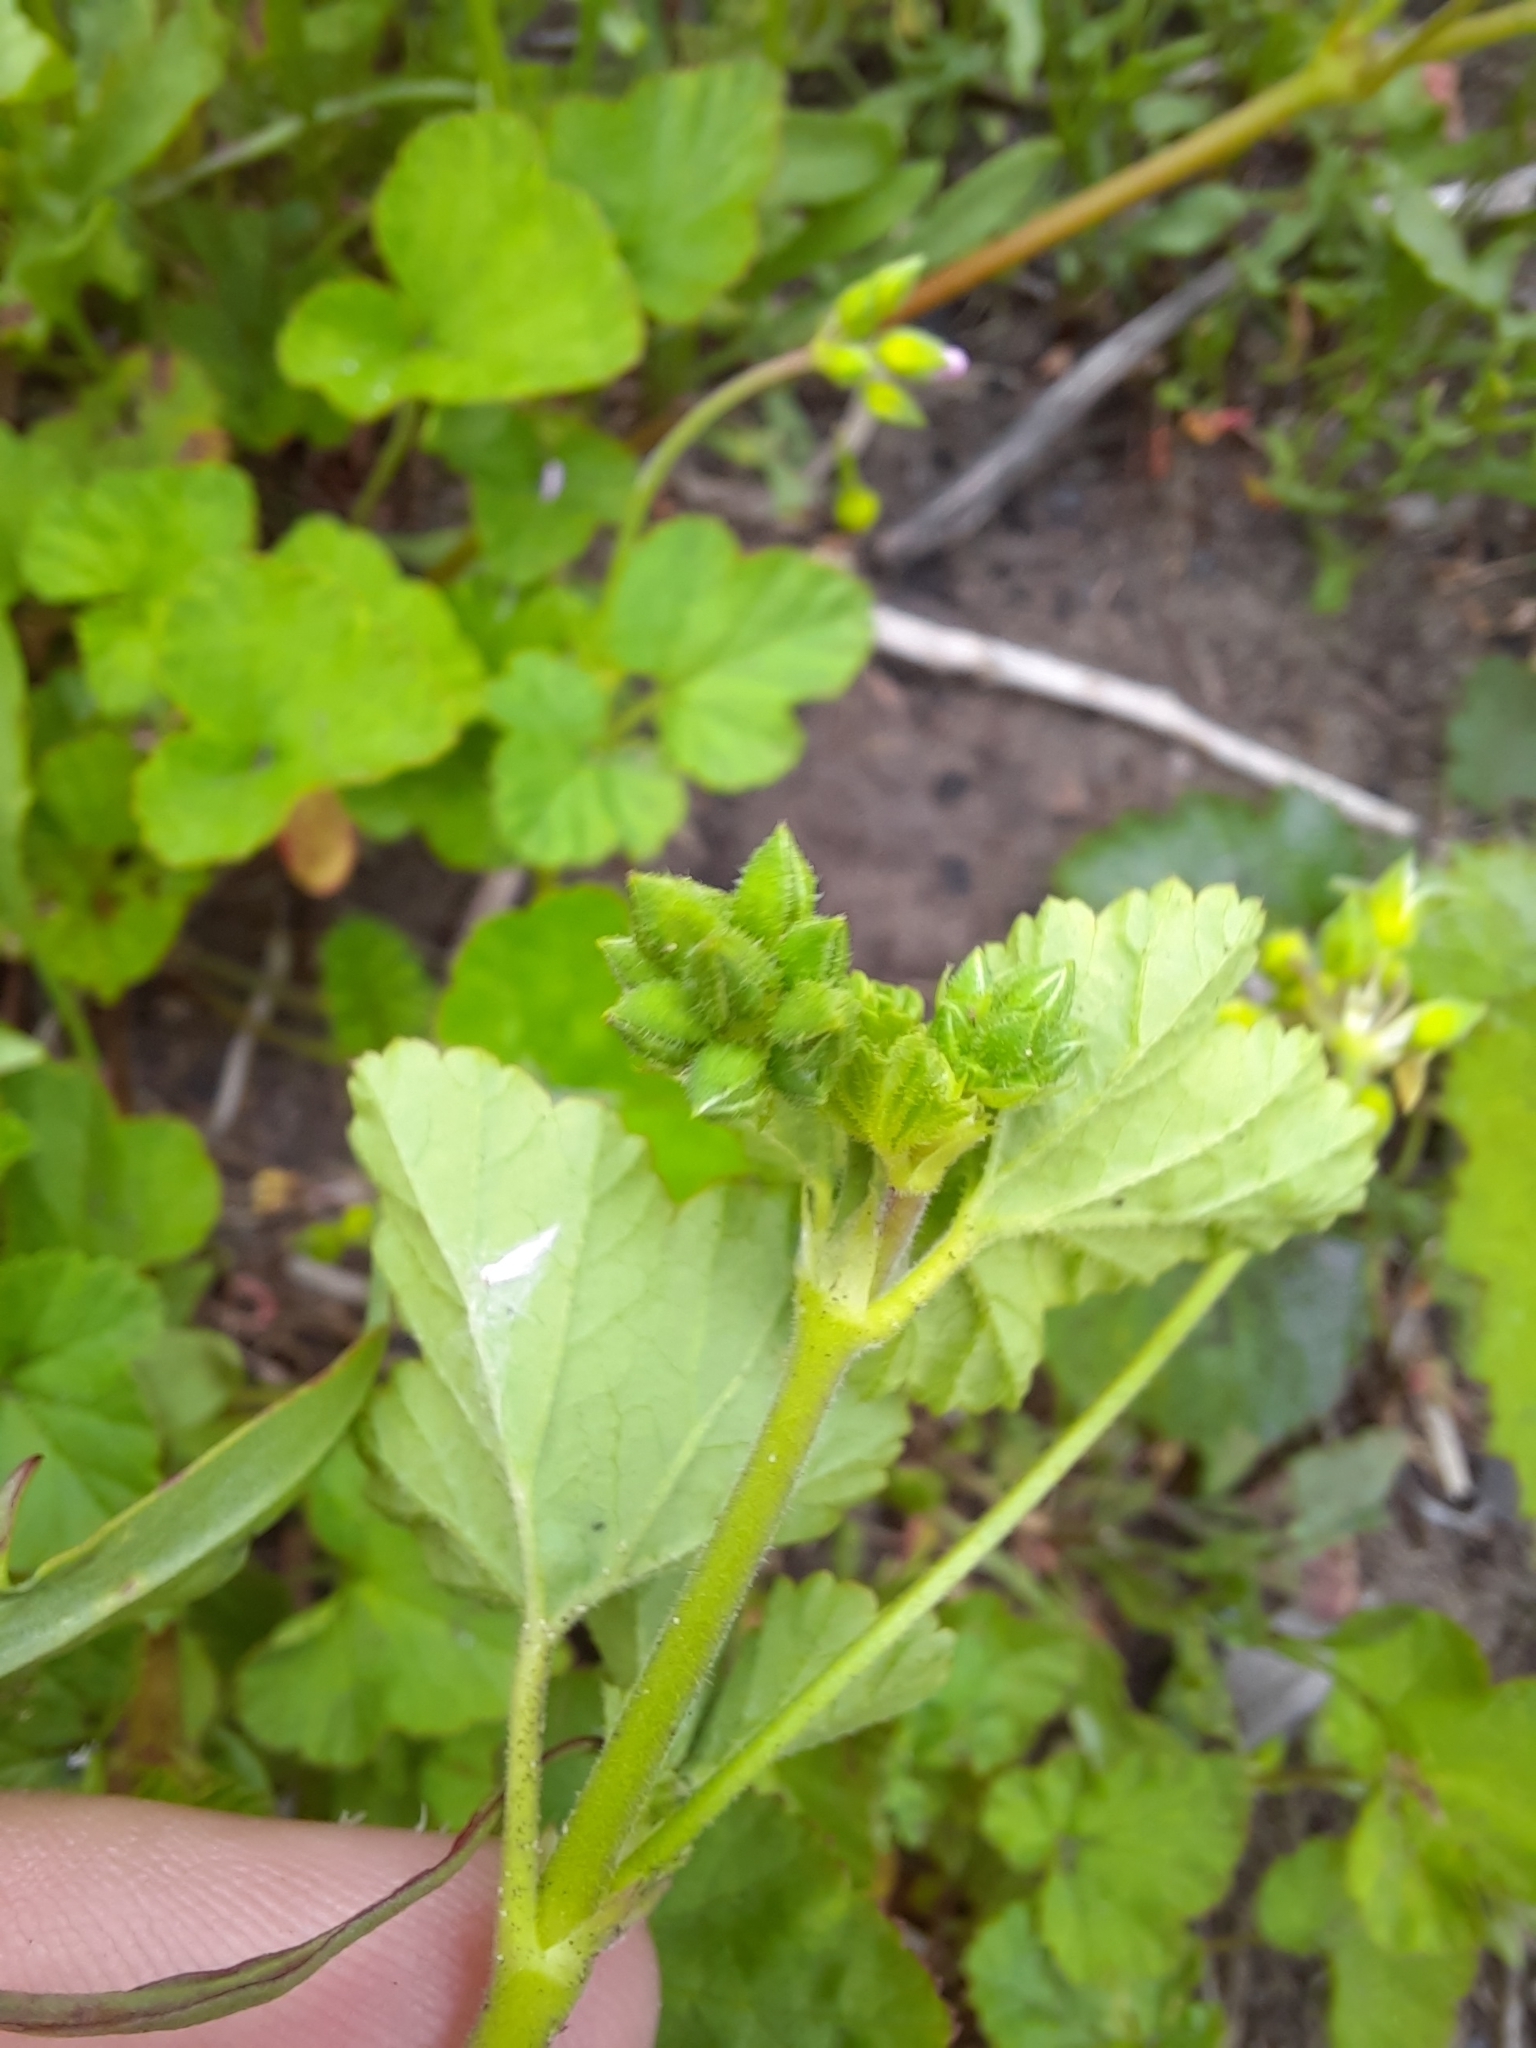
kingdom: Plantae
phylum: Tracheophyta
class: Magnoliopsida
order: Geraniales
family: Geraniaceae
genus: Pelargonium
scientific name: Pelargonium inodorum
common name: Kopata geranium
